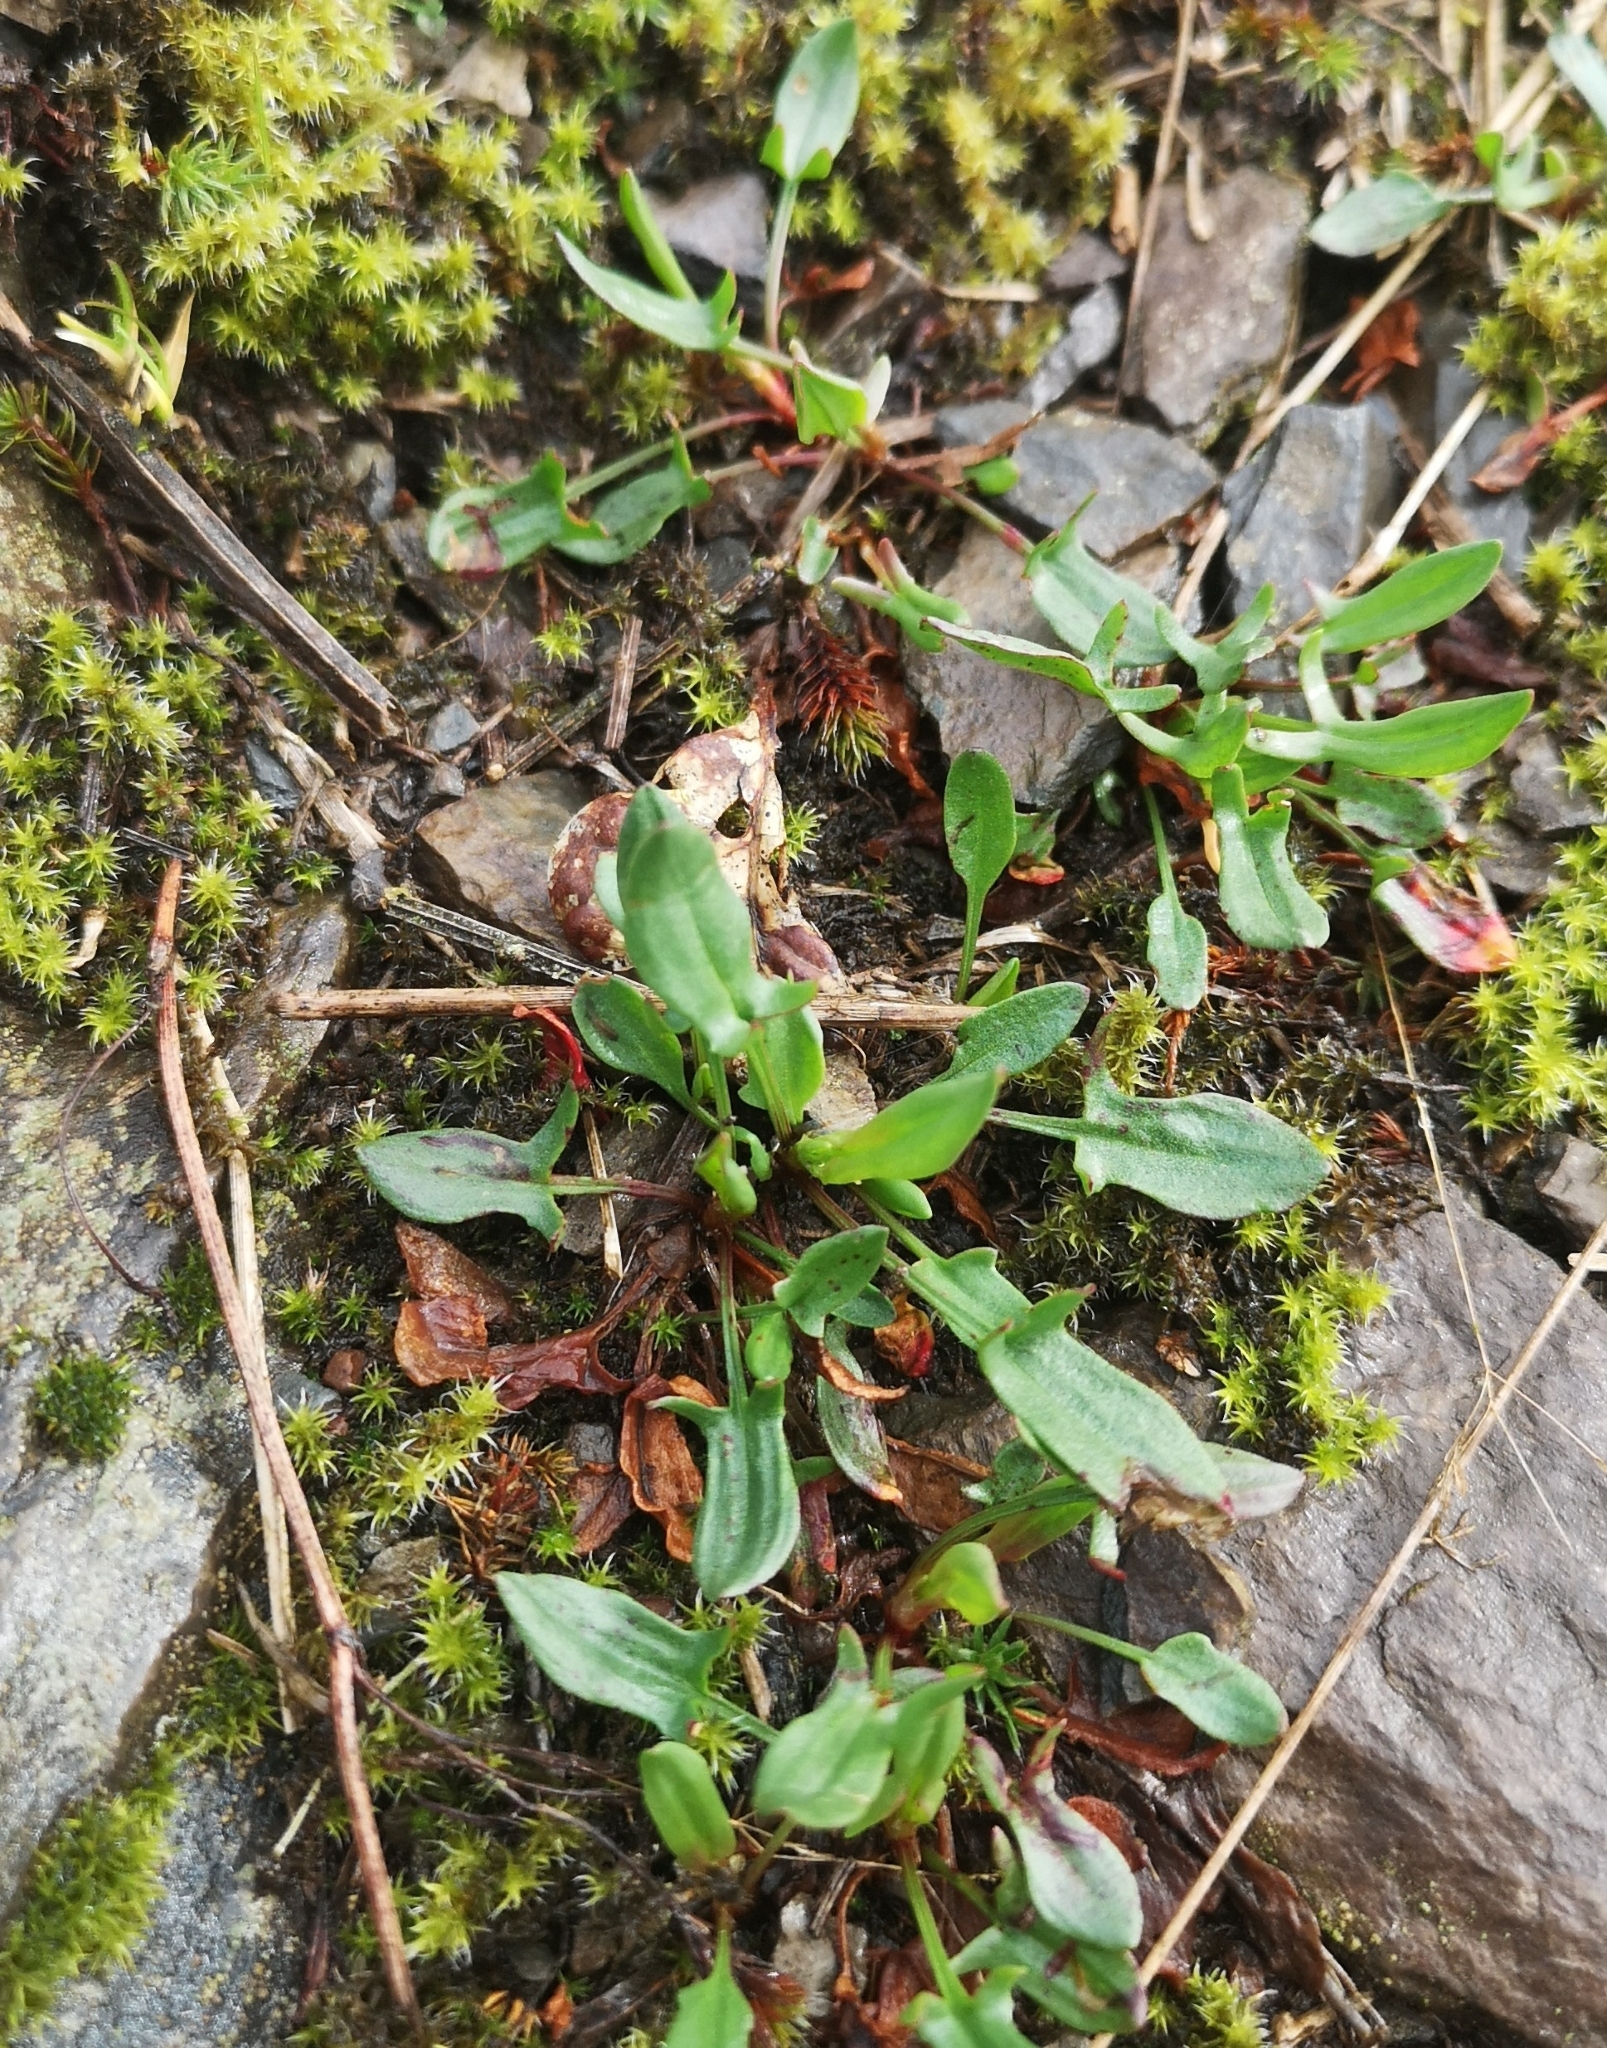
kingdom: Plantae
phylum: Tracheophyta
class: Magnoliopsida
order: Caryophyllales
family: Polygonaceae
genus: Rumex
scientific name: Rumex acetosella
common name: Common sheep sorrel
